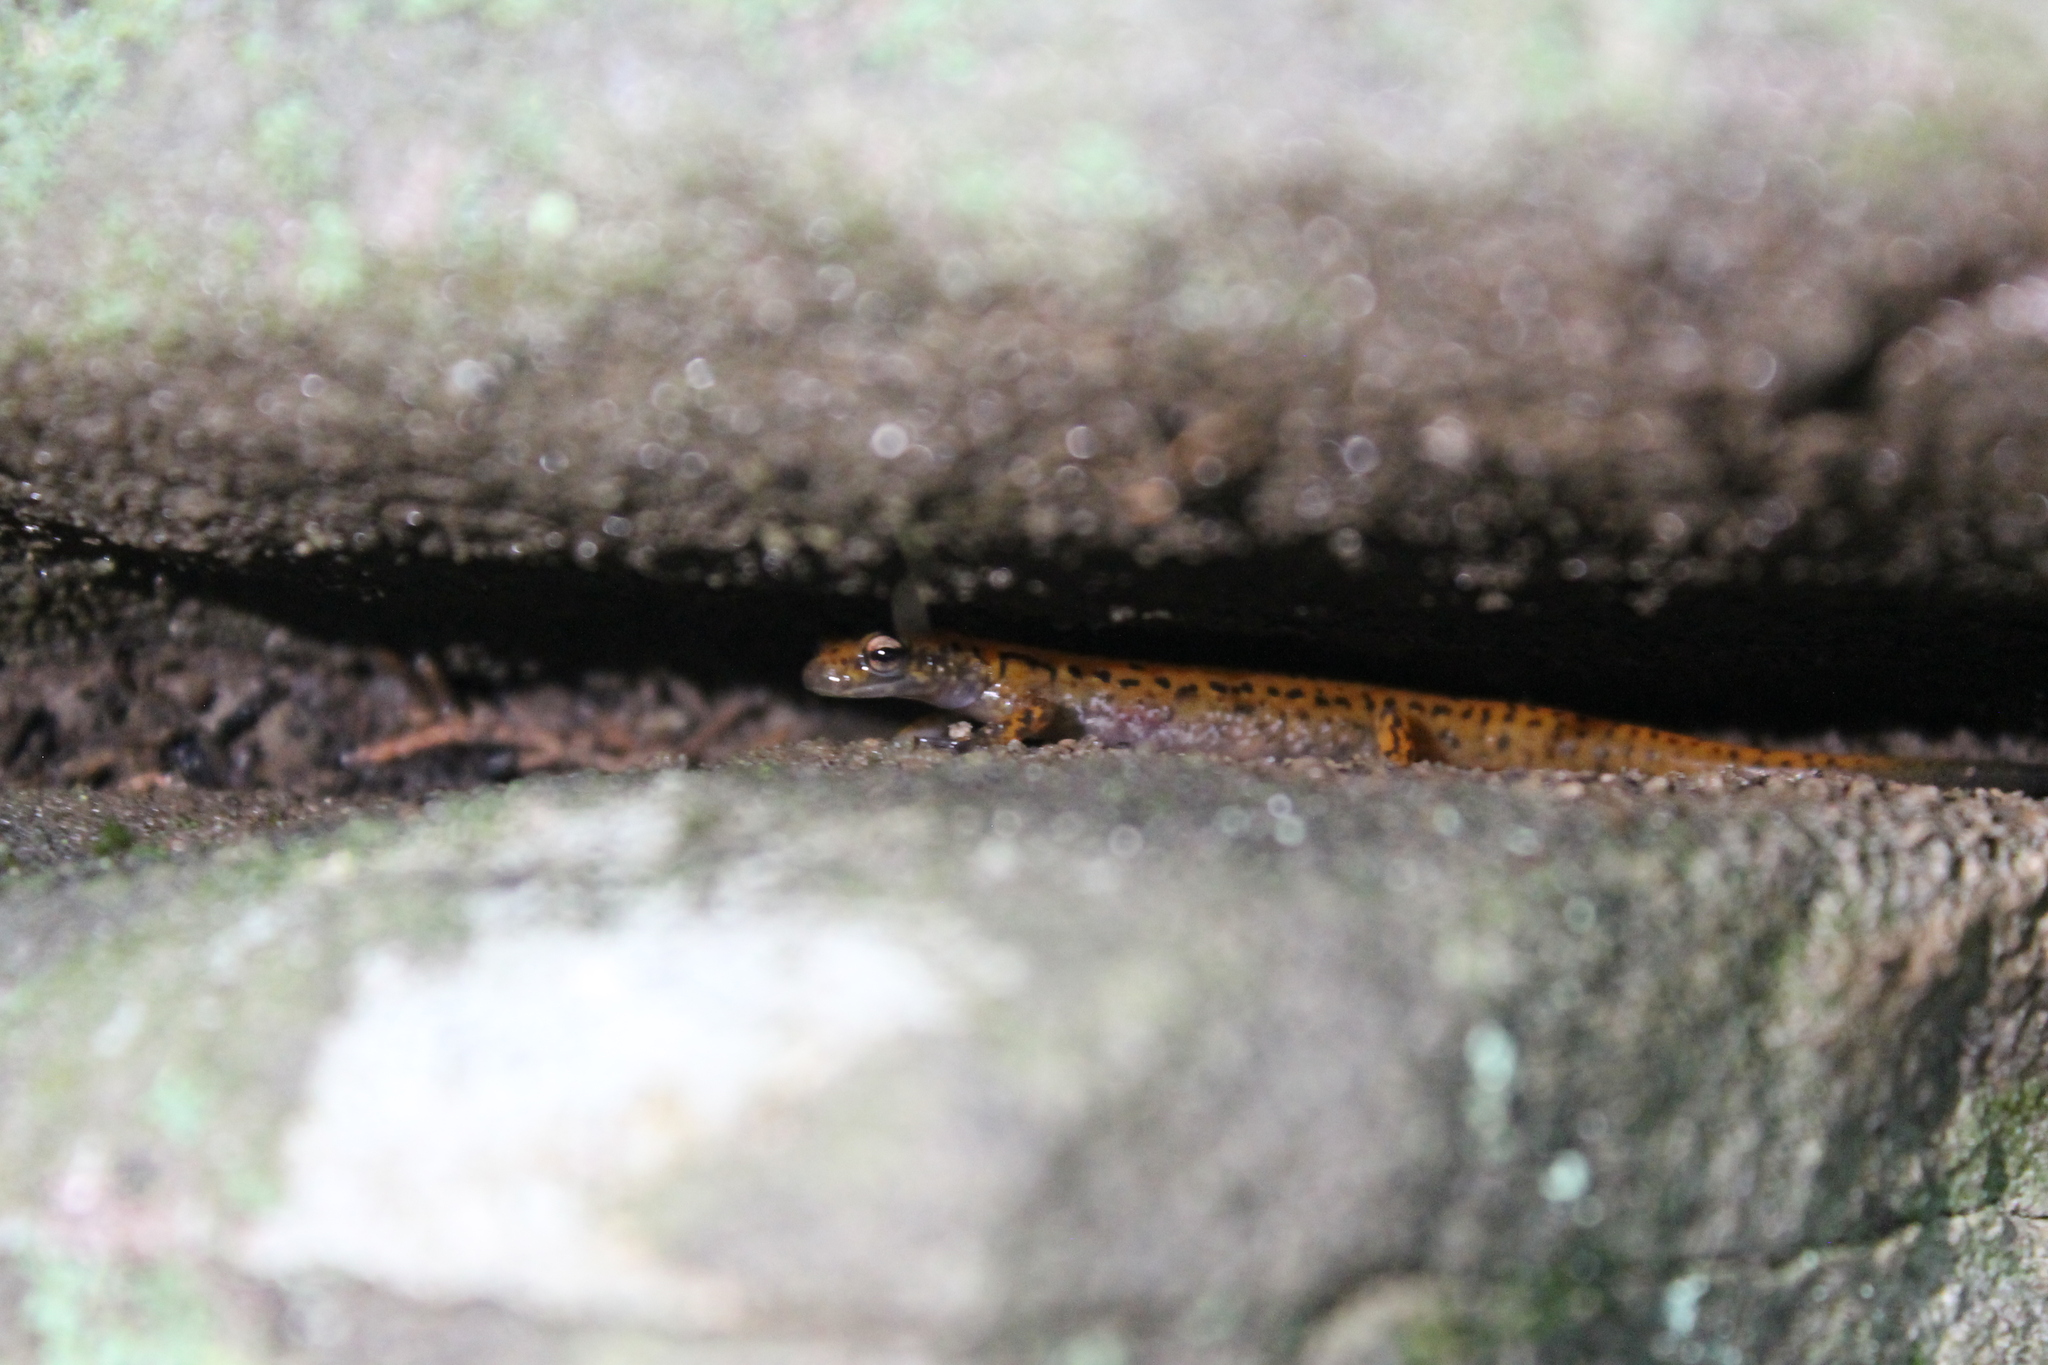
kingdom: Animalia
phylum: Chordata
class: Amphibia
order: Caudata
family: Plethodontidae
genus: Eurycea
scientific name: Eurycea lucifuga
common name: Cave salamander
